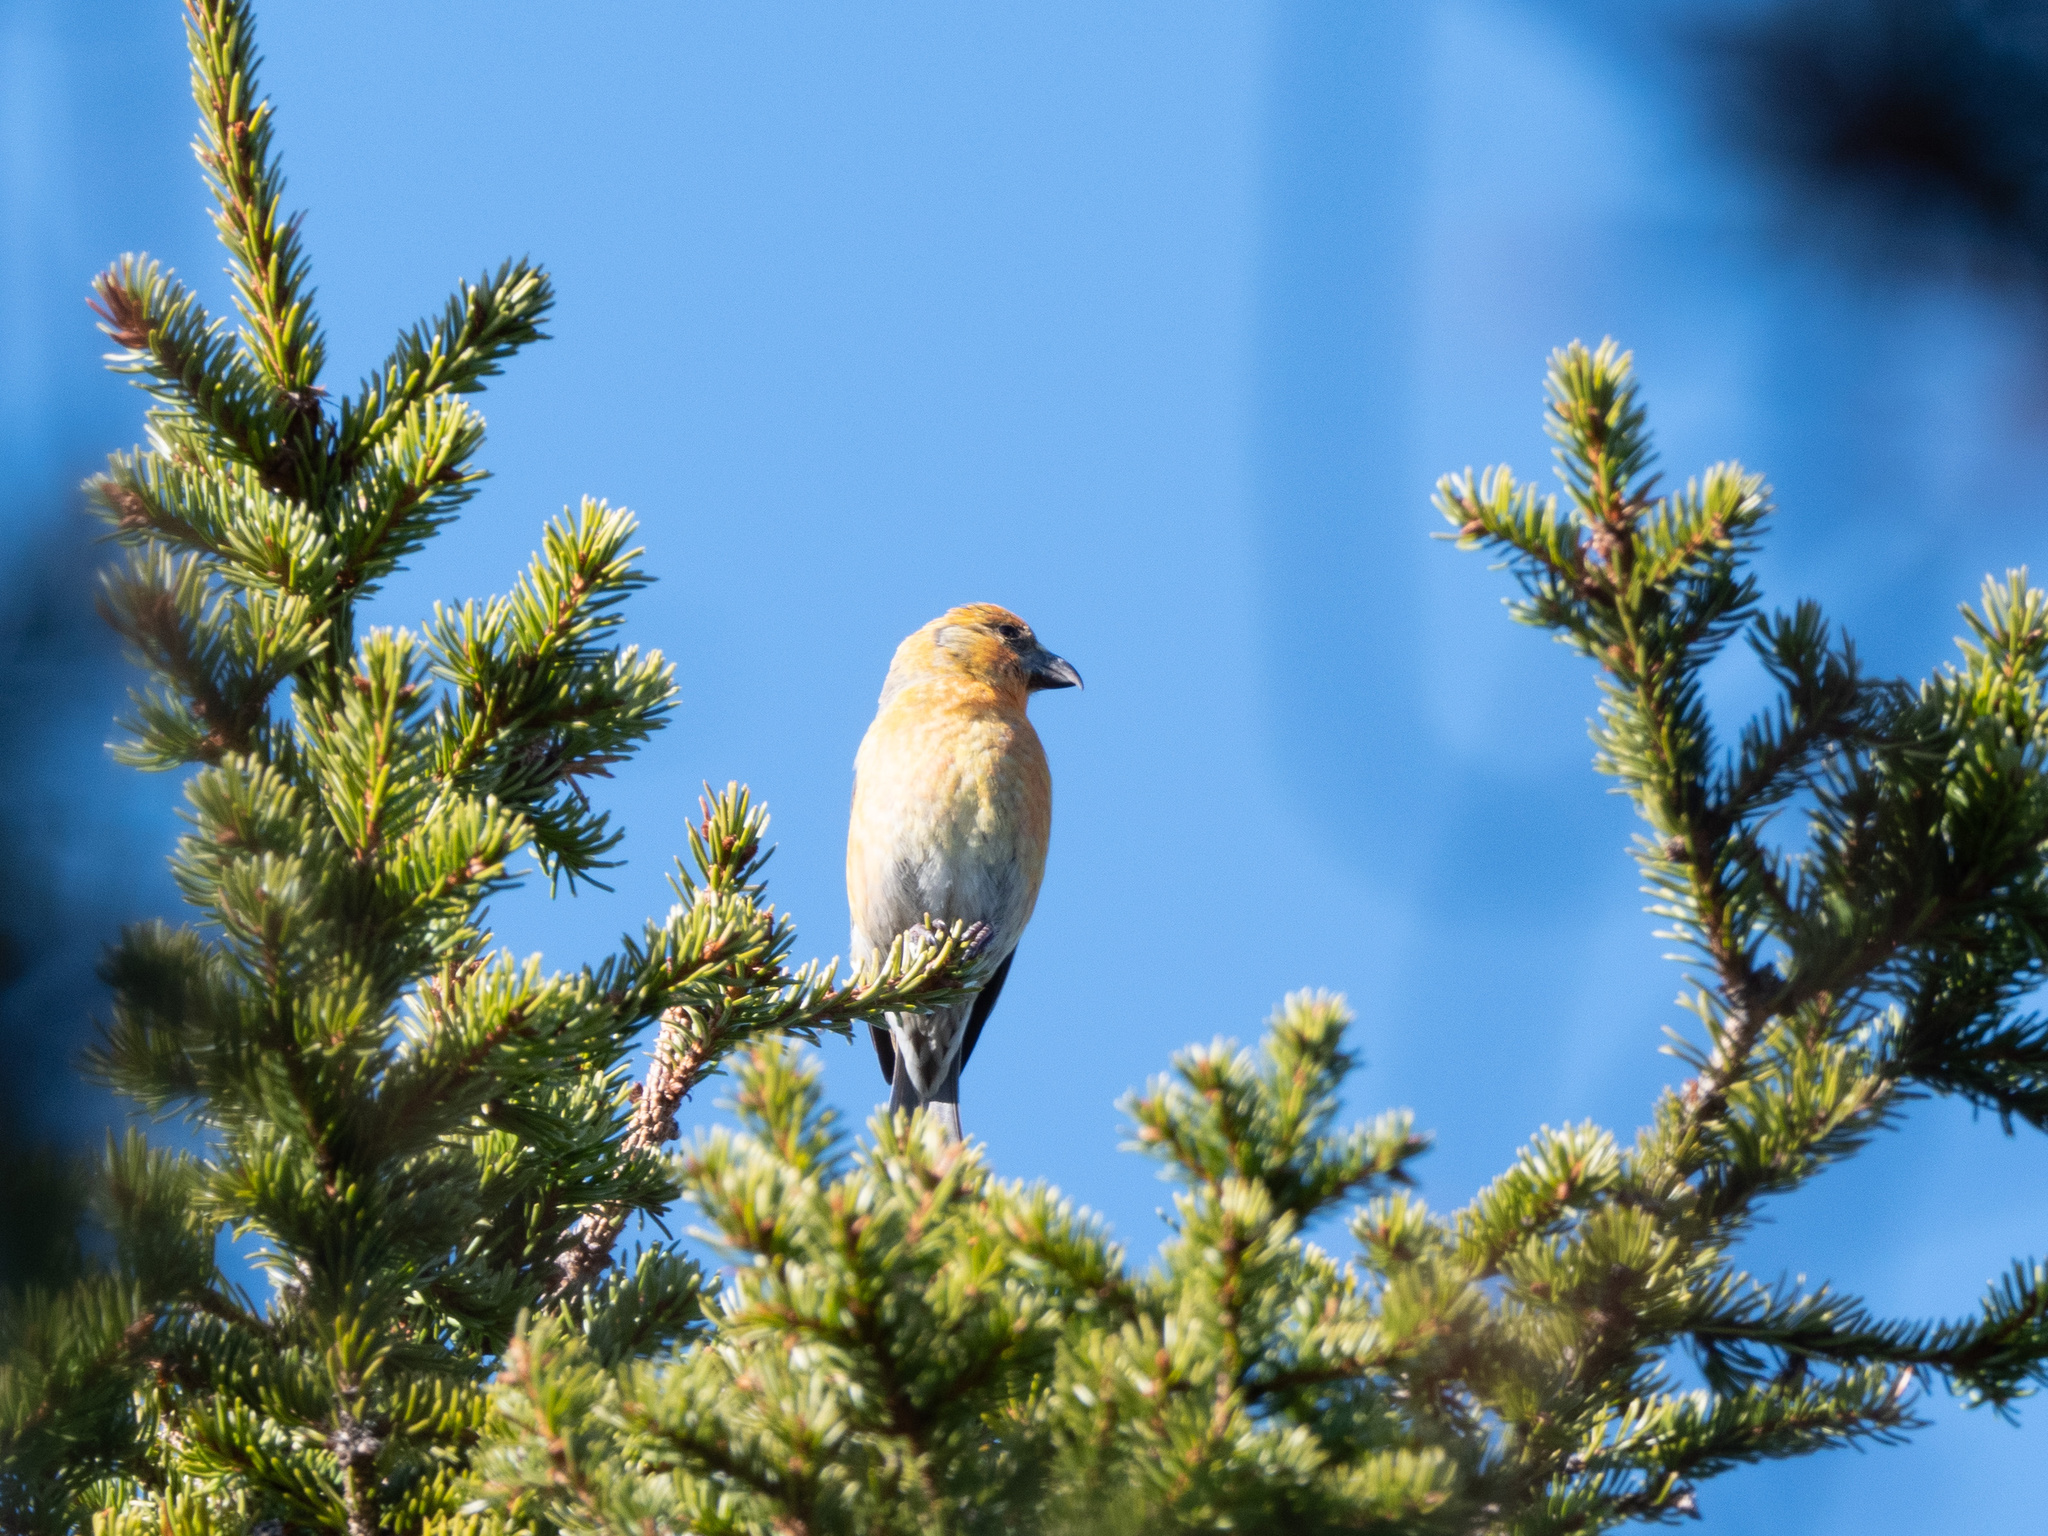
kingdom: Animalia
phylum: Chordata
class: Aves
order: Passeriformes
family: Fringillidae
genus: Loxia
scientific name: Loxia curvirostra
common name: Red crossbill
